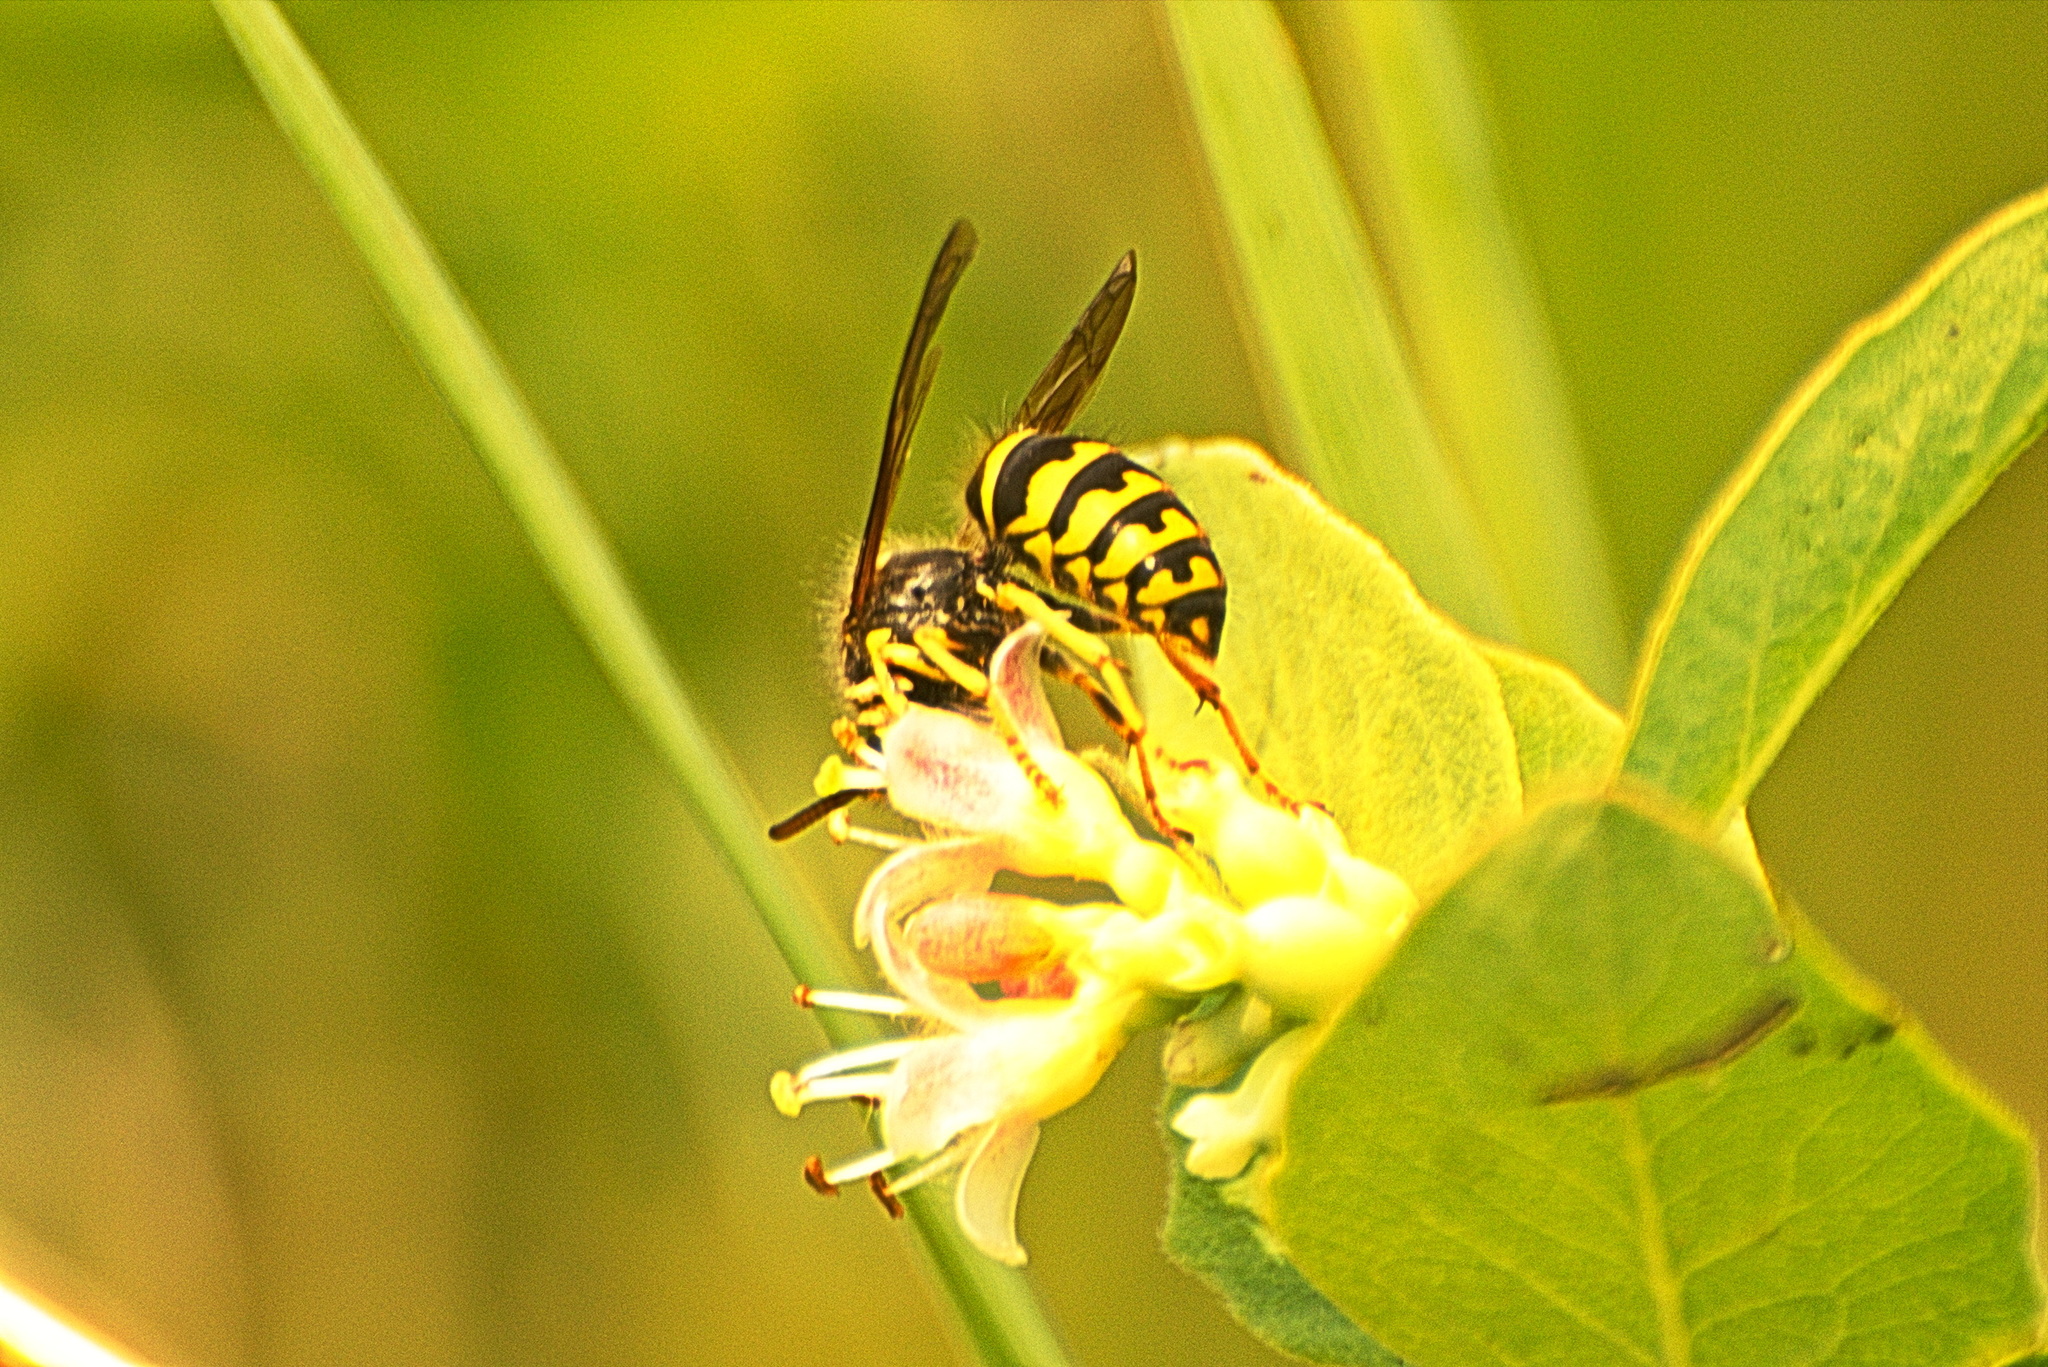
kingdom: Animalia
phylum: Arthropoda
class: Insecta
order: Hymenoptera
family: Vespidae
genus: Dolichovespula
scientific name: Dolichovespula arenaria
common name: Aerial yellowjacket
